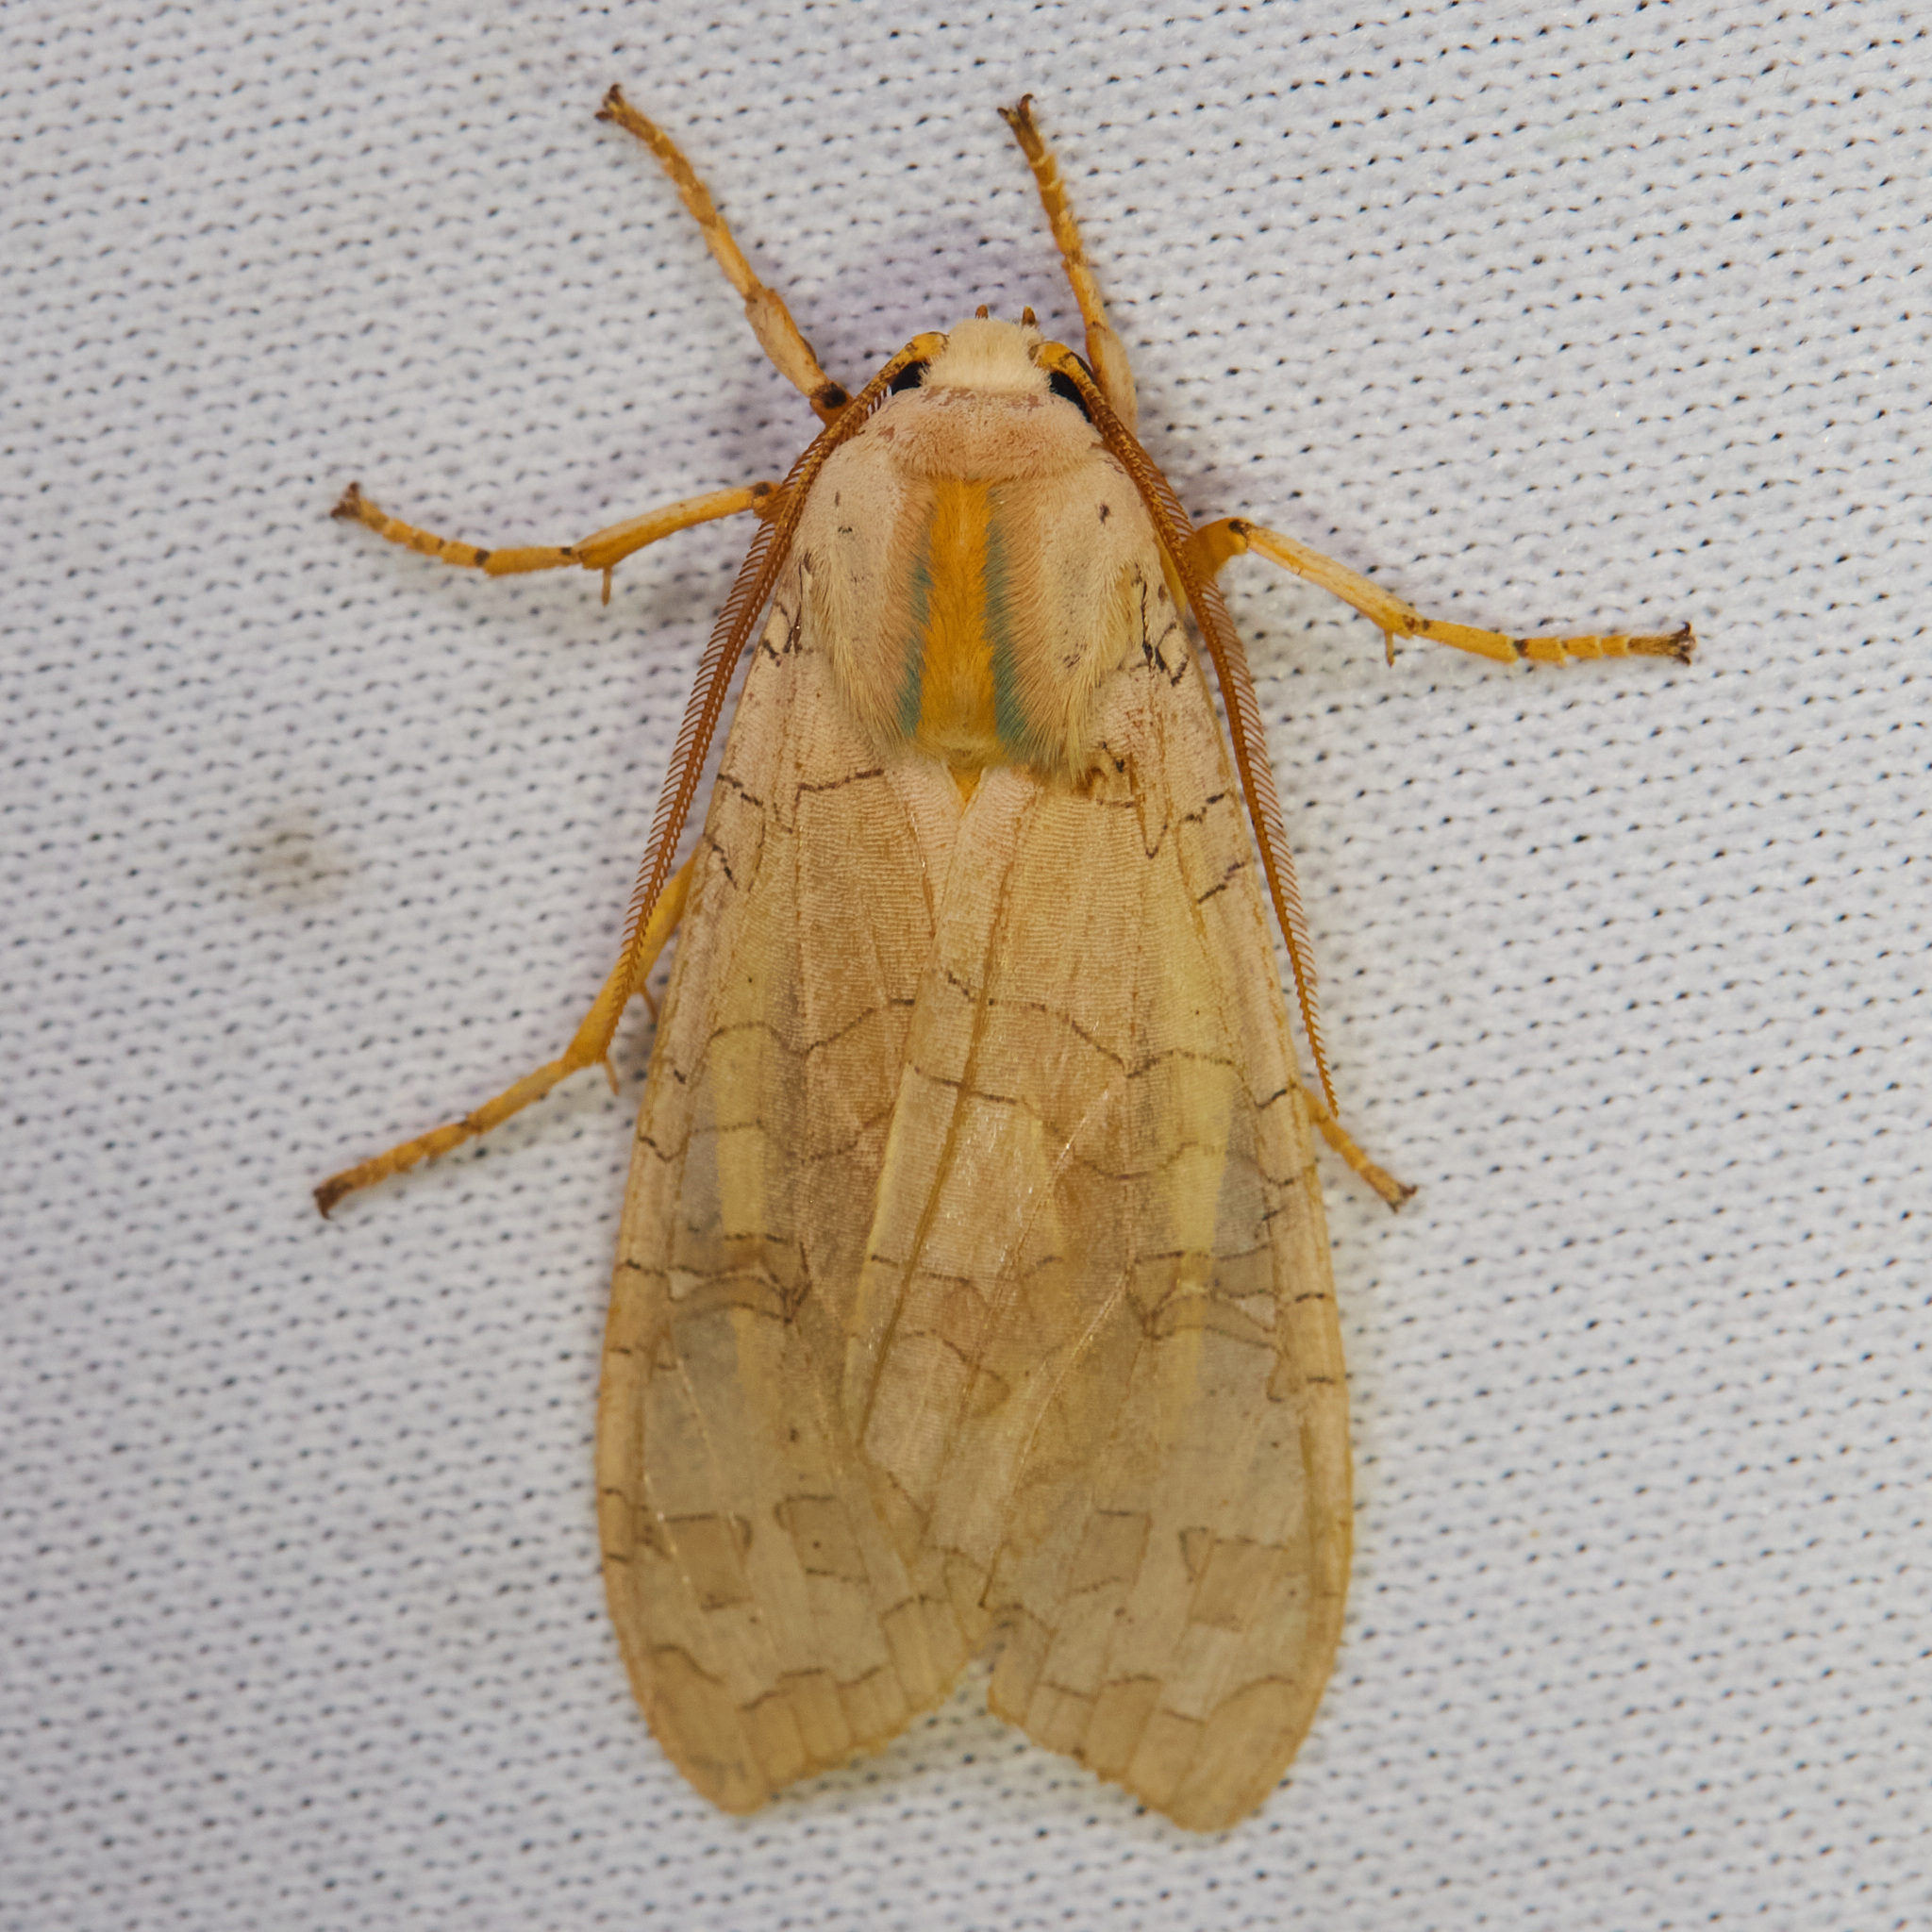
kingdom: Animalia
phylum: Arthropoda
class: Insecta
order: Lepidoptera
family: Erebidae
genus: Halysidota
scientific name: Halysidota
